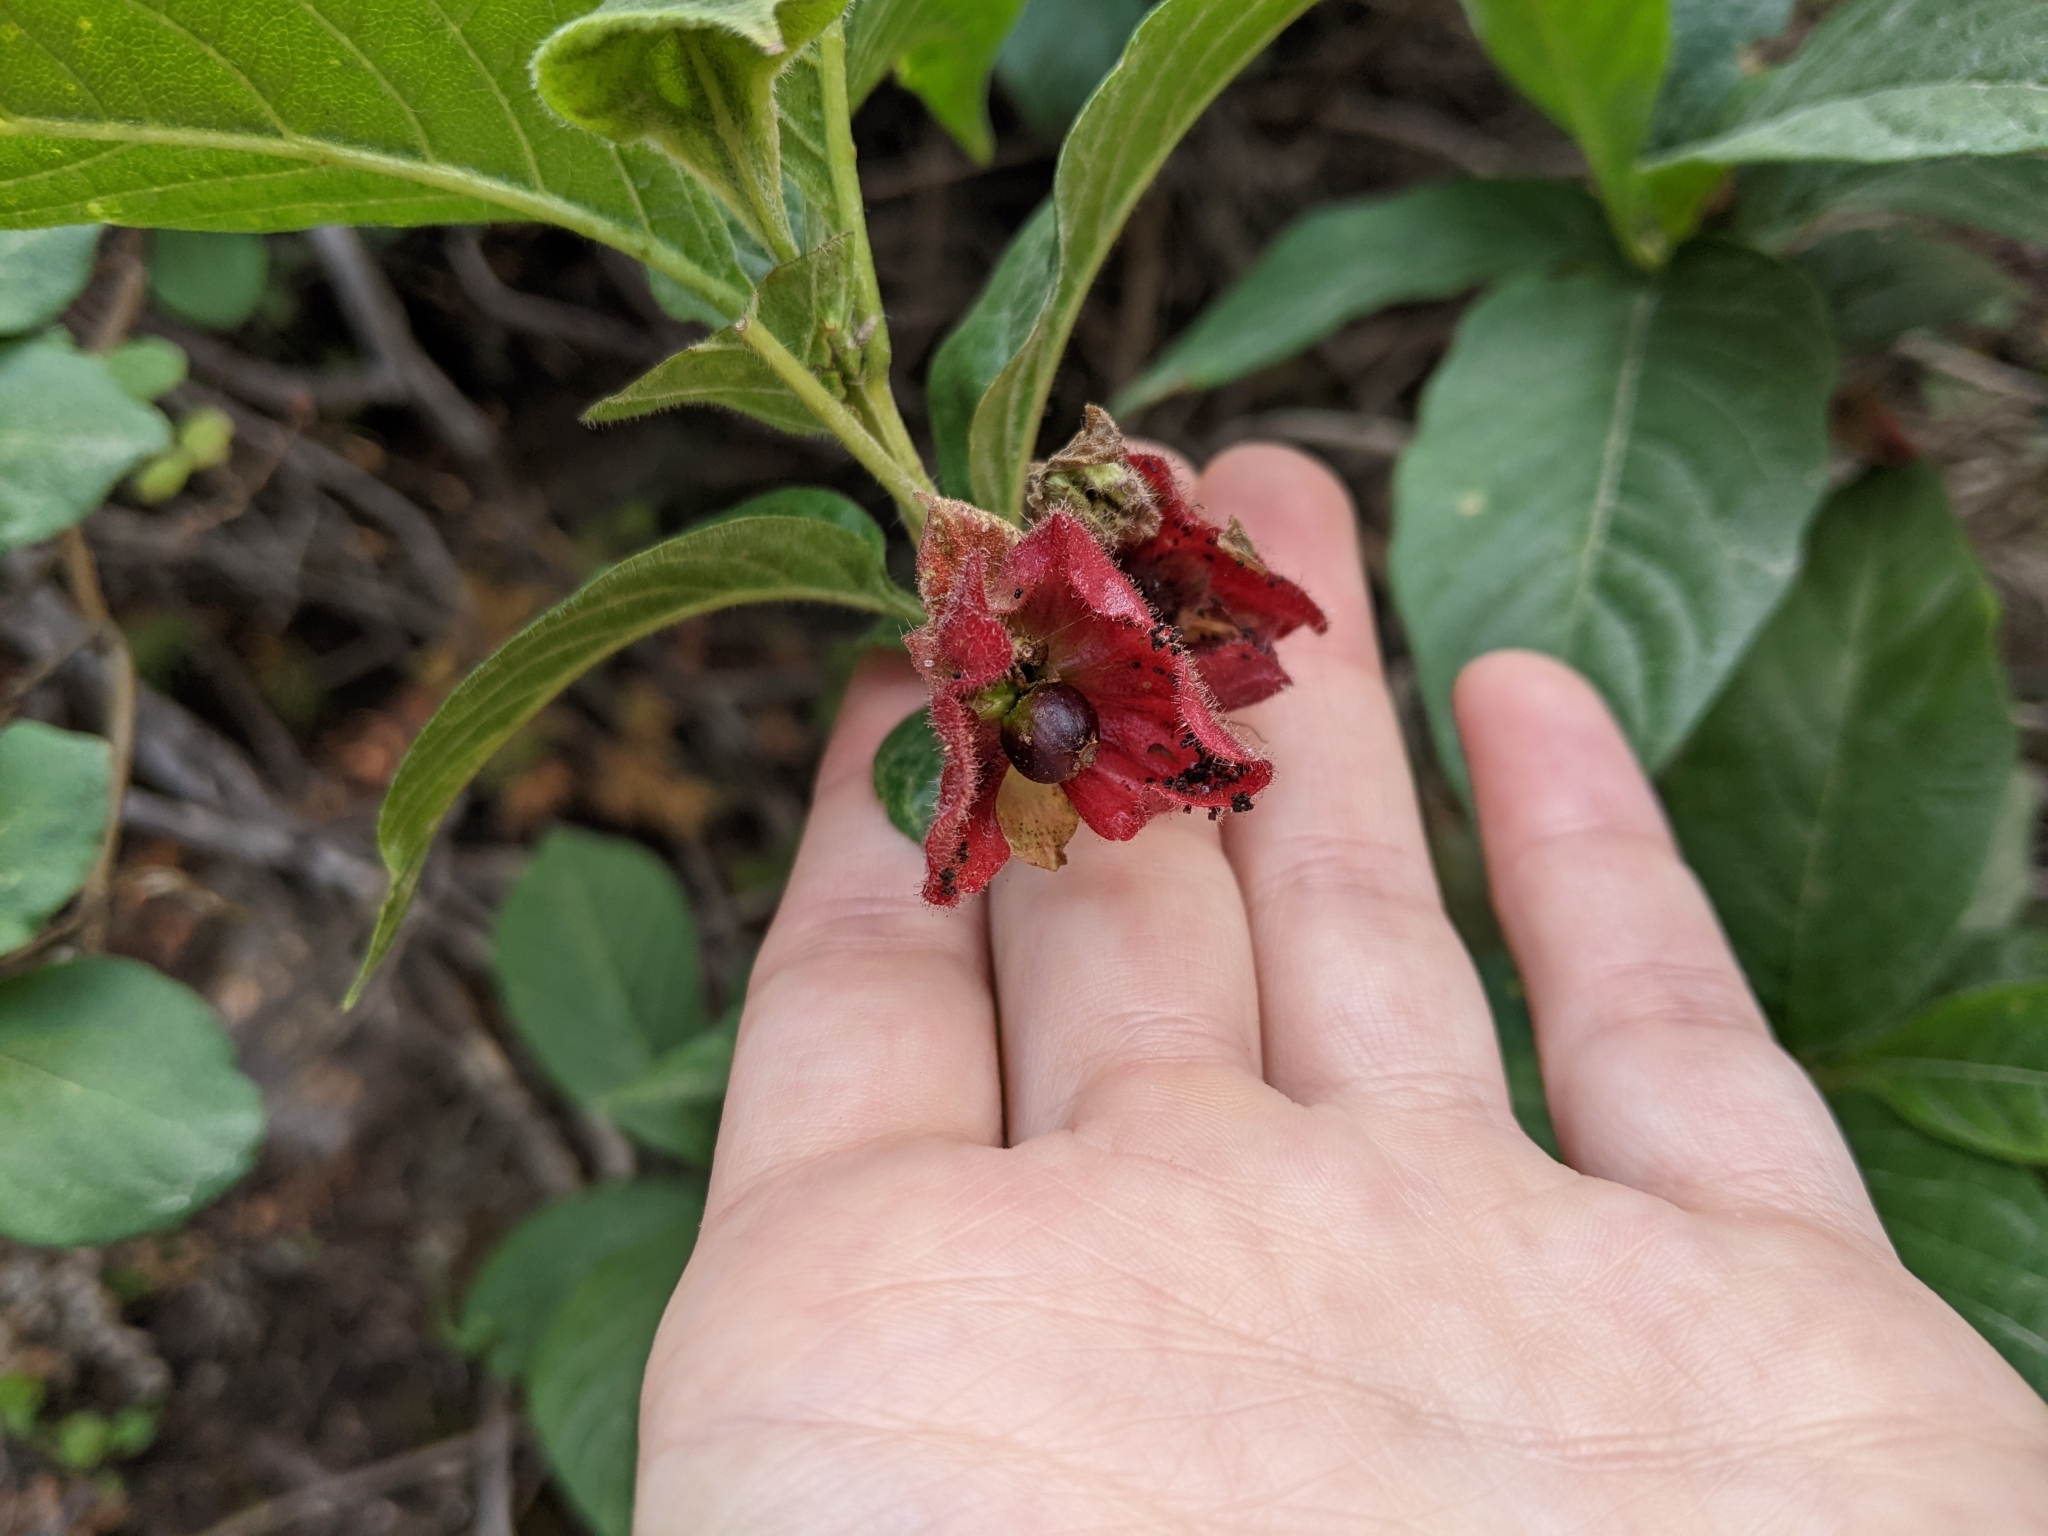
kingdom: Plantae
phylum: Tracheophyta
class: Magnoliopsida
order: Dipsacales
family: Caprifoliaceae
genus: Lonicera
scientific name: Lonicera involucrata
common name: Californian honeysuckle
